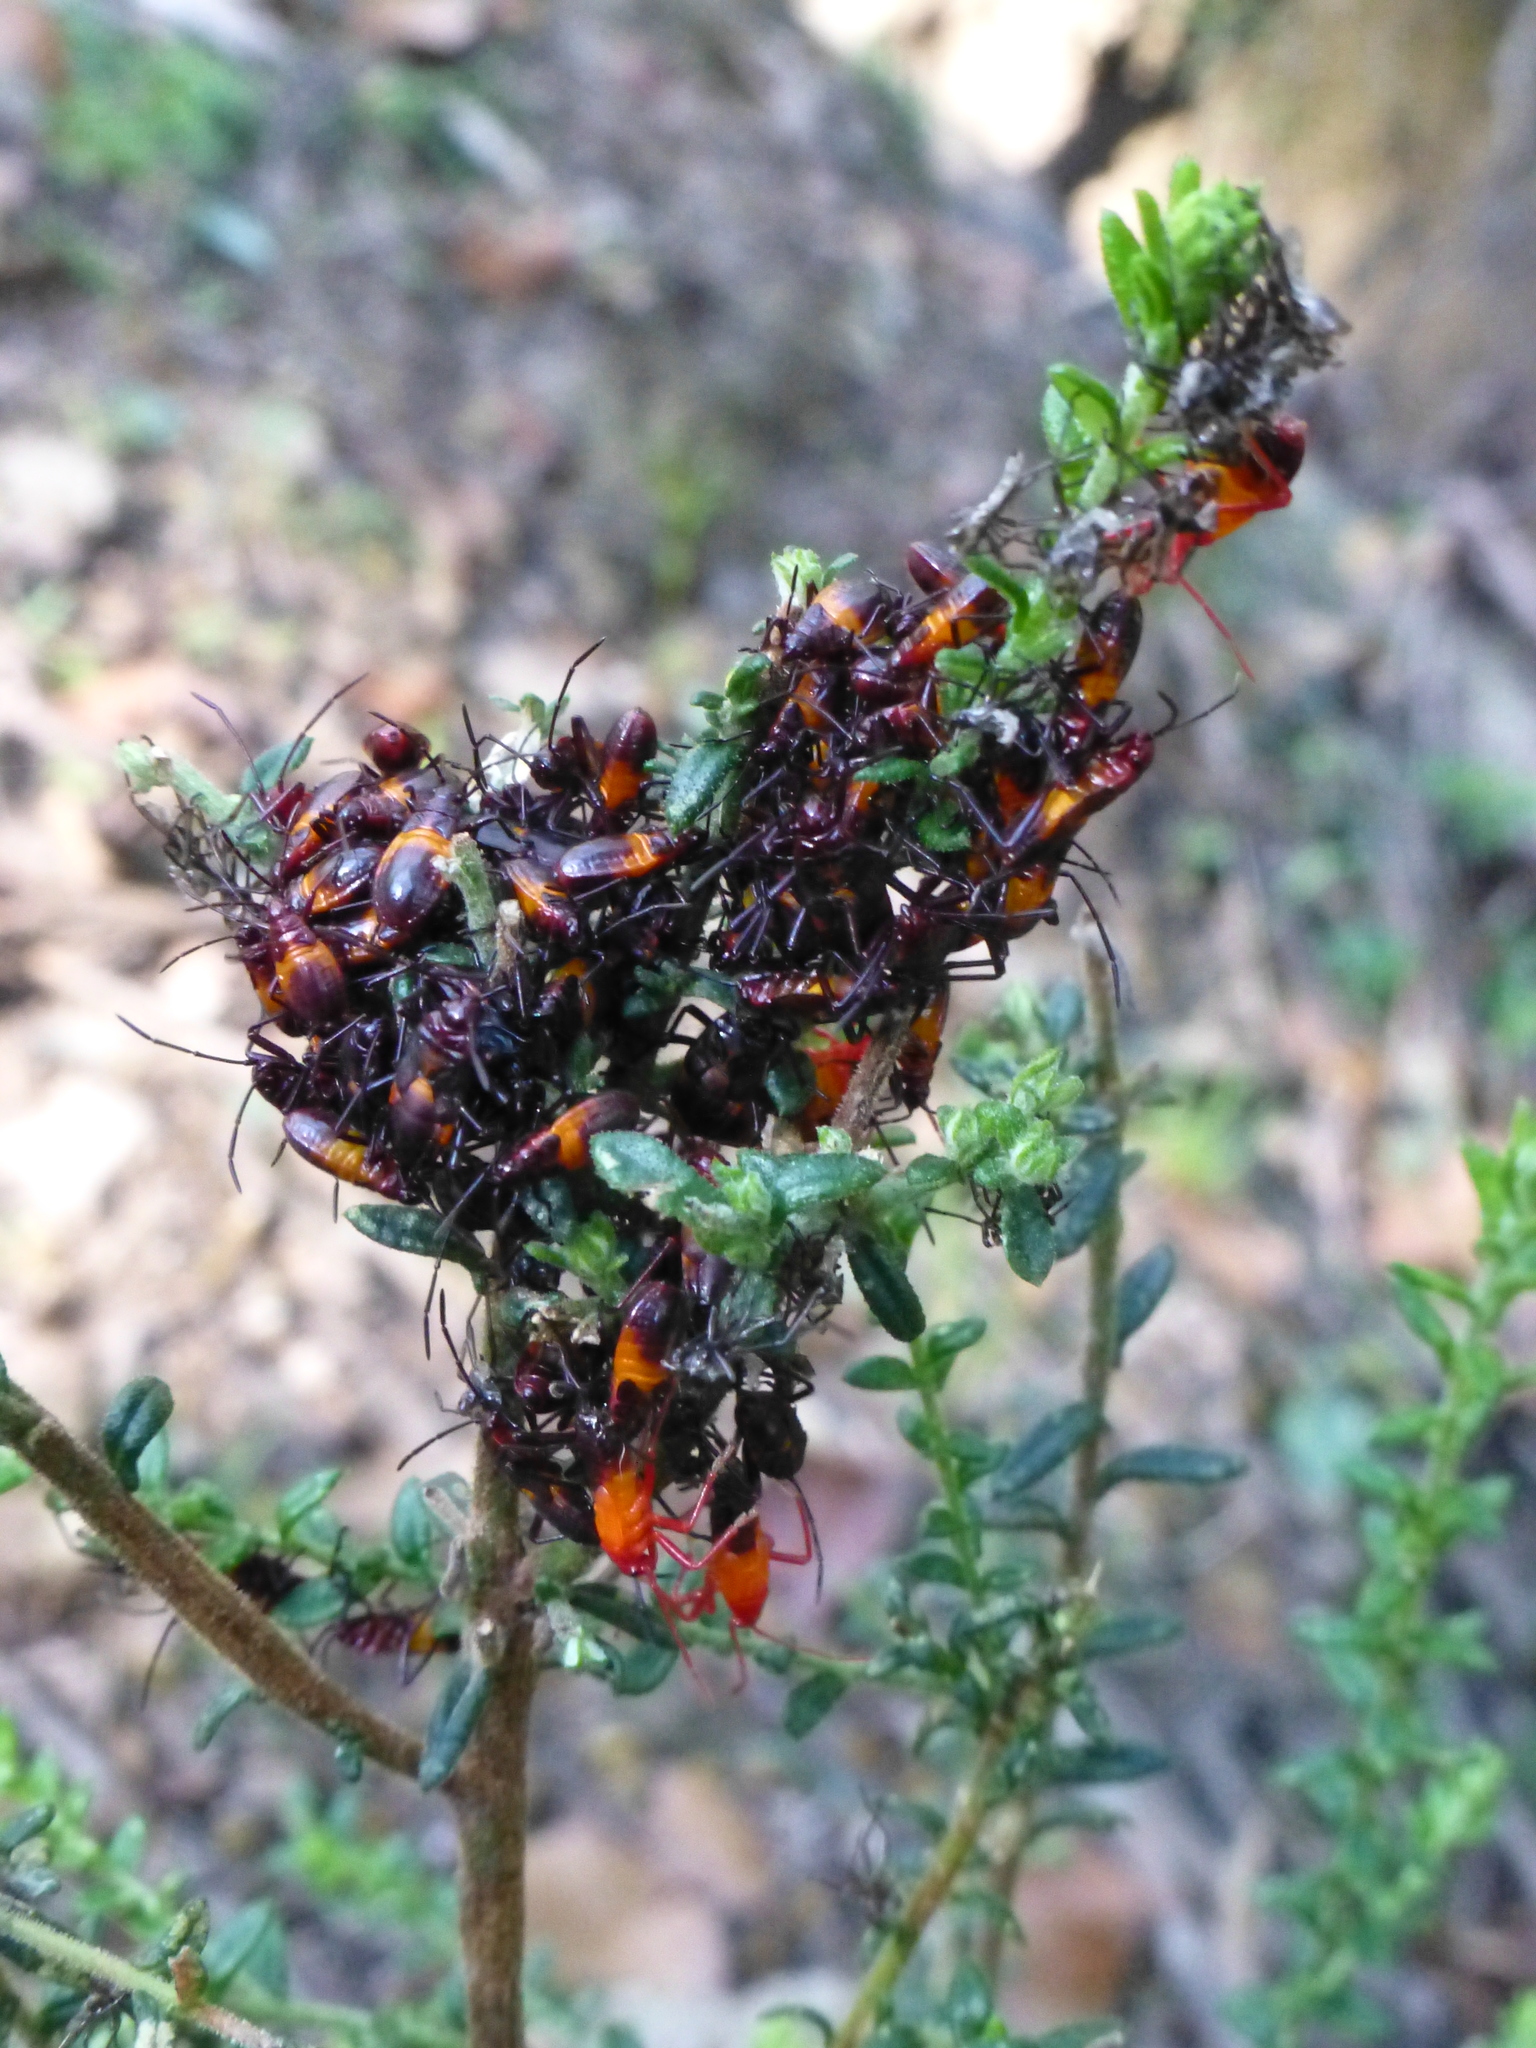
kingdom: Animalia
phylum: Arthropoda
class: Insecta
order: Hemiptera
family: Lygaeidae
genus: Oncopeltus
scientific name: Oncopeltus sordidus
